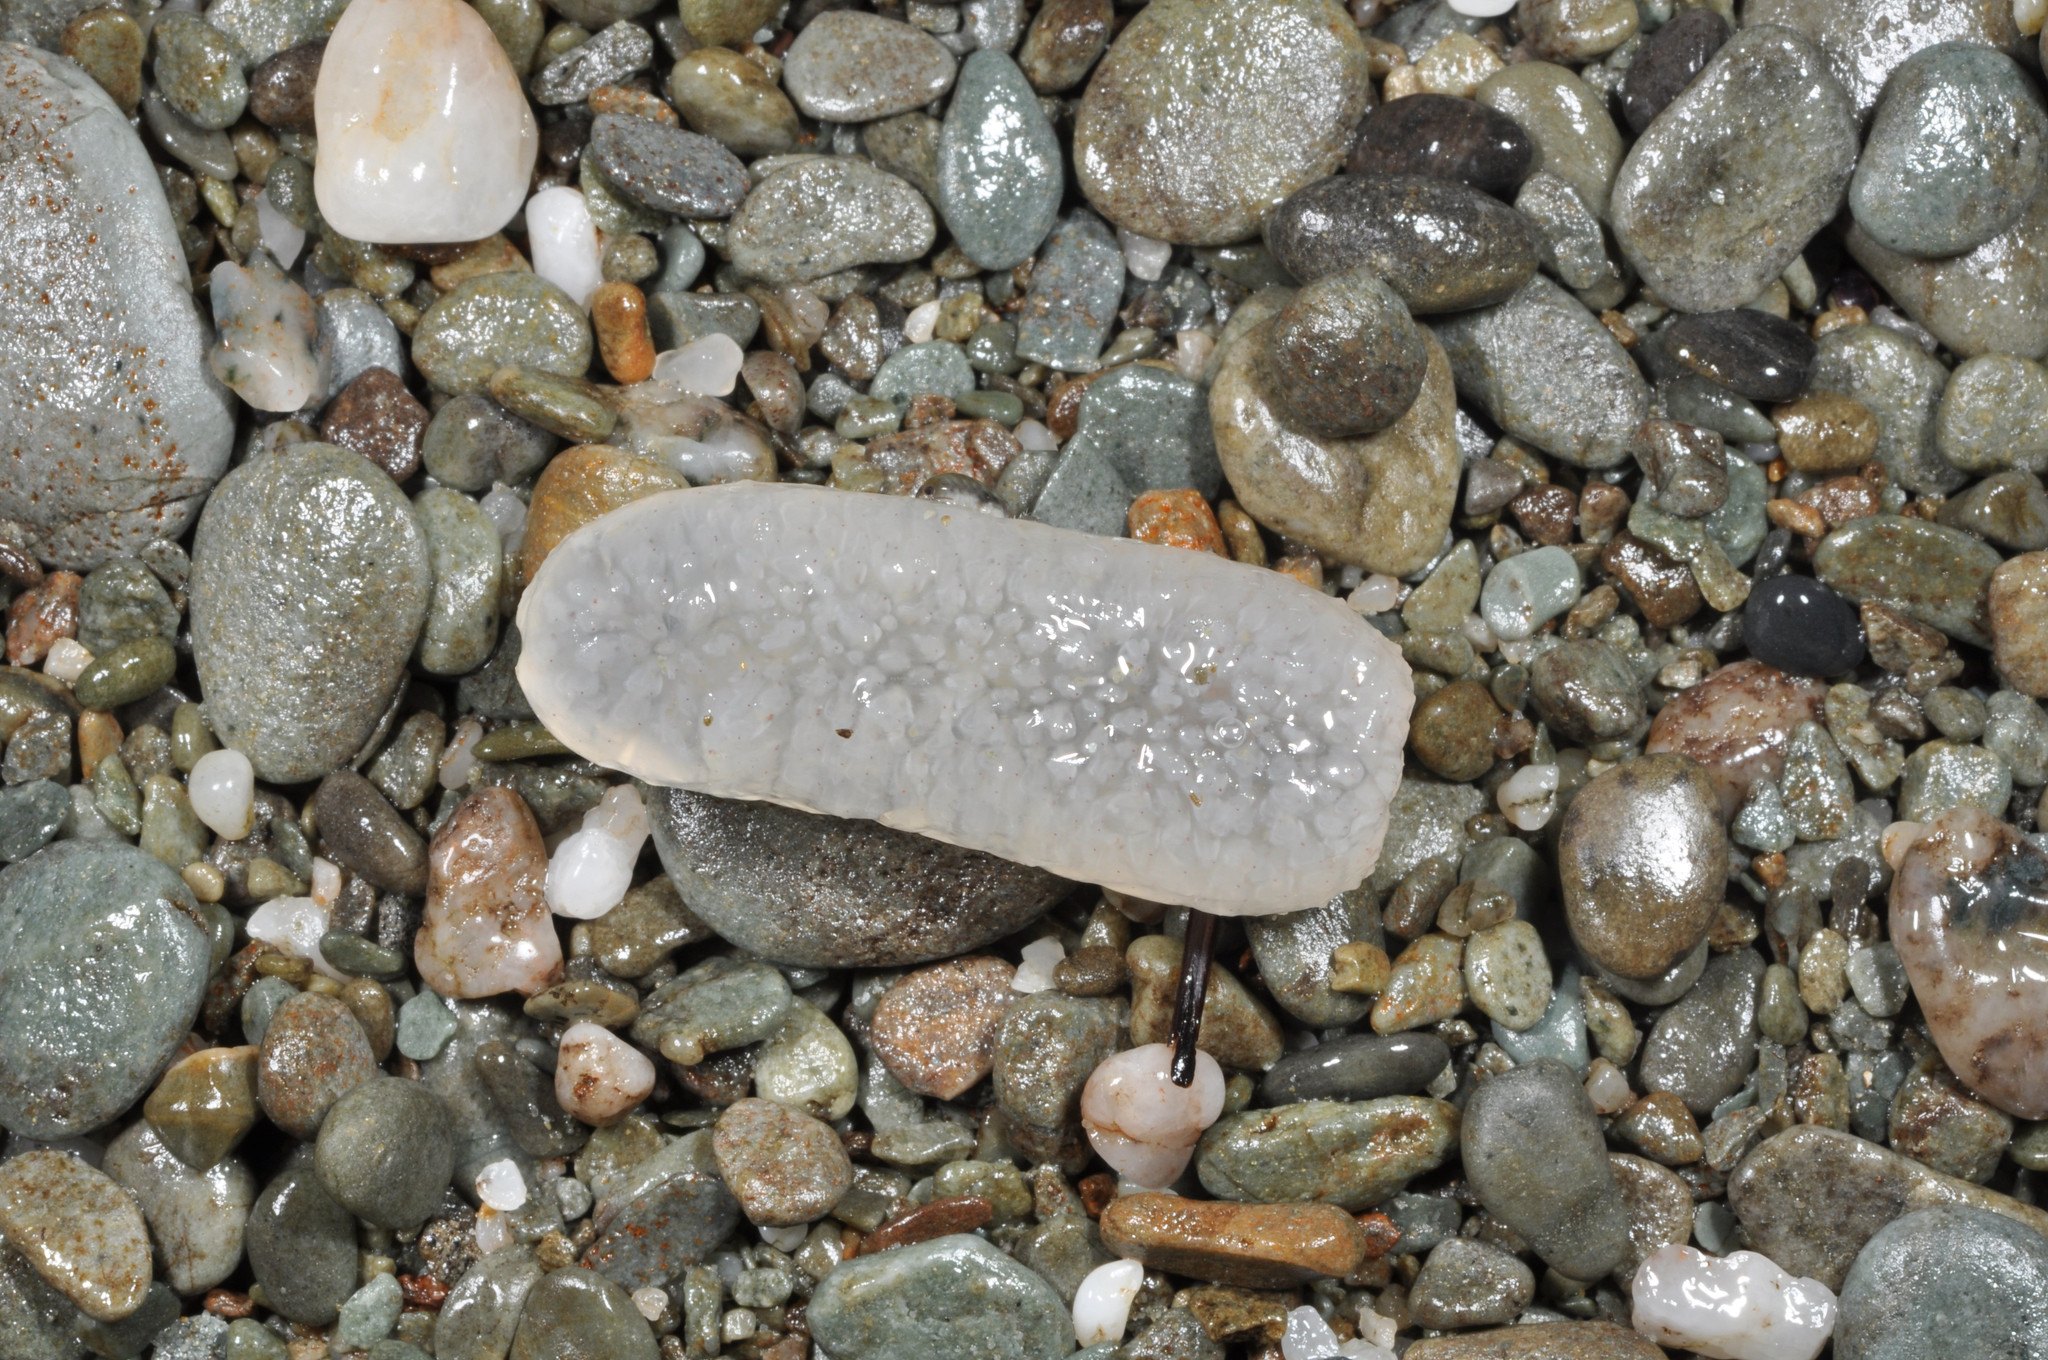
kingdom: Animalia
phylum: Chordata
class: Thaliacea
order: Pyrosomatida
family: Pyrosomatidae
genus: Pyrosoma
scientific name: Pyrosoma atlanticum
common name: Atlantic pyrosomes
